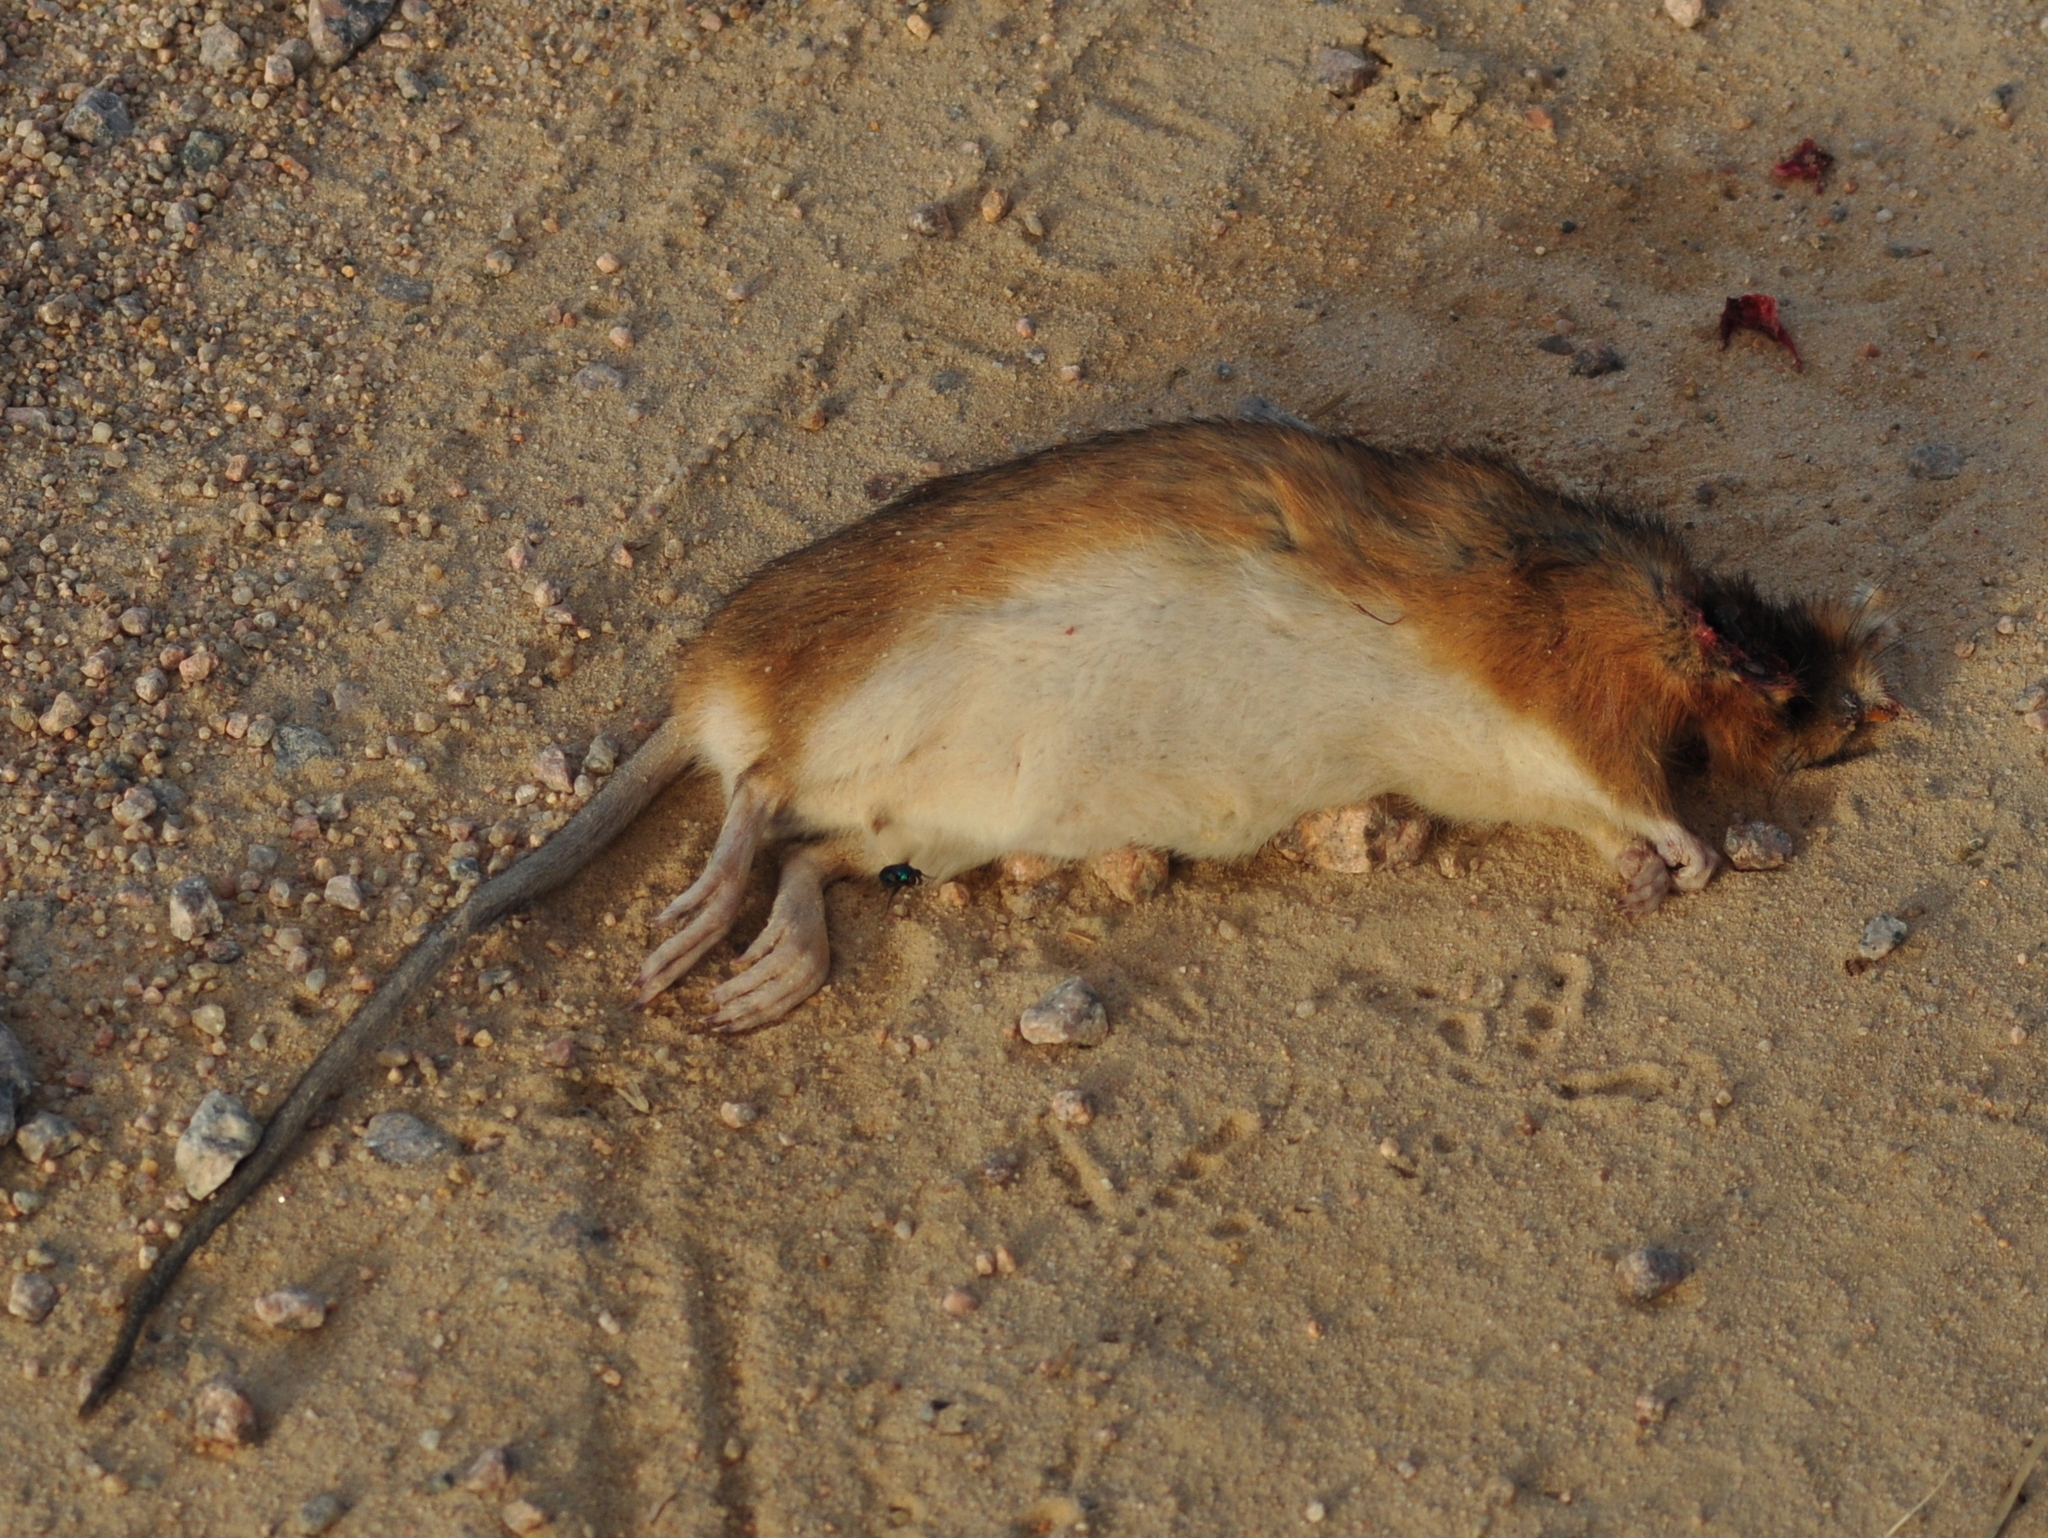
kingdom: Animalia
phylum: Chordata
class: Mammalia
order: Rodentia
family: Cricetidae
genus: Holochilus
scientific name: Holochilus brasiliensis
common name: Brazilian marsh rat
